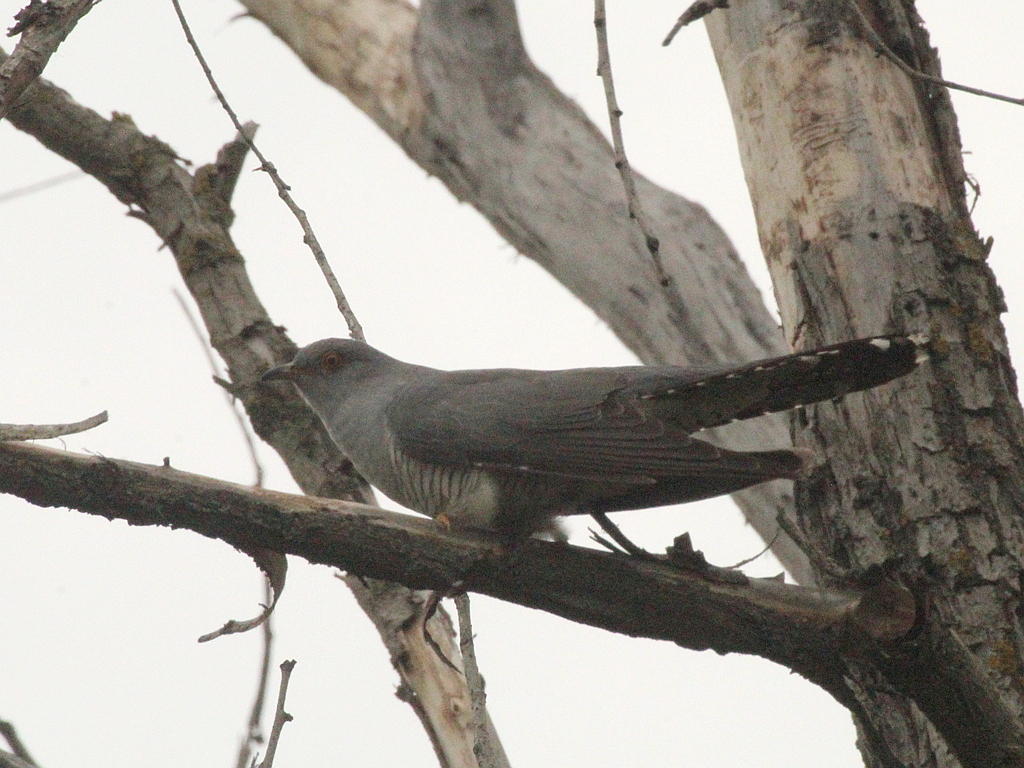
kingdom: Animalia
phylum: Chordata
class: Aves
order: Cuculiformes
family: Cuculidae
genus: Cuculus
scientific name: Cuculus canorus
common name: Common cuckoo
